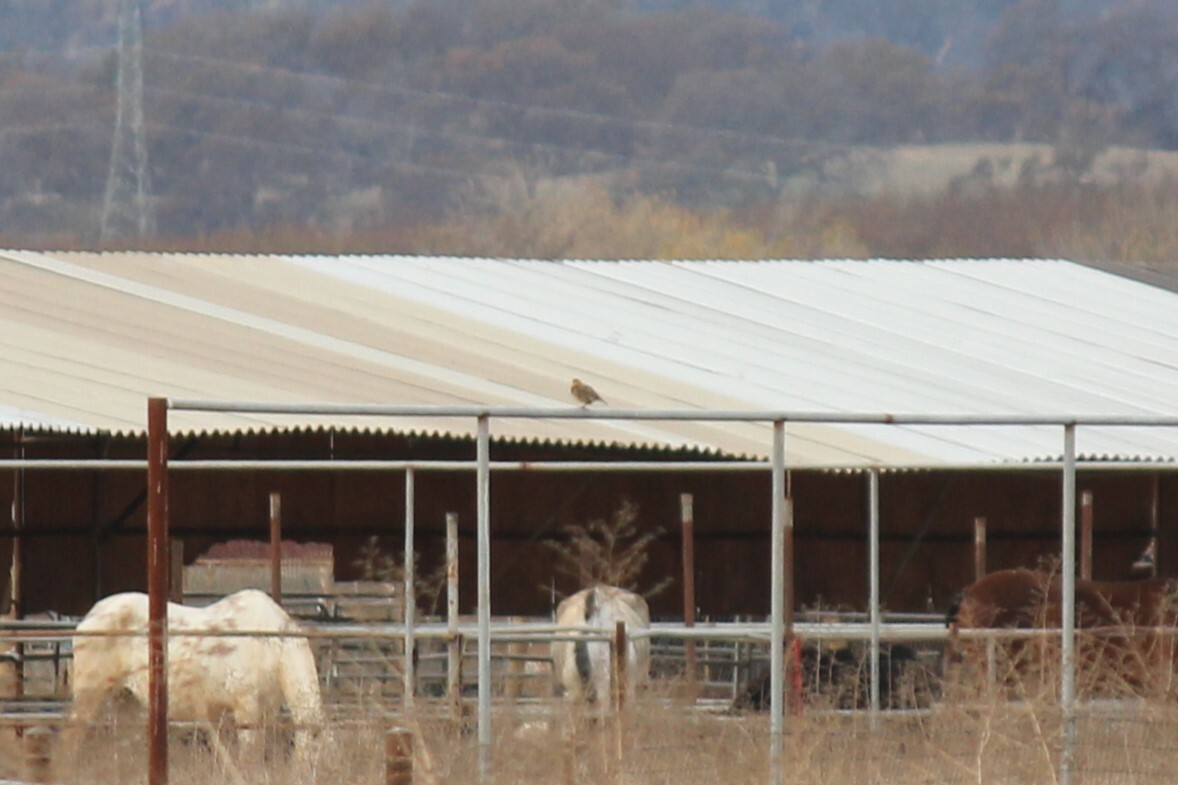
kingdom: Animalia
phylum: Chordata
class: Aves
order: Passeriformes
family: Icteridae
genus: Sturnella
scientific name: Sturnella neglecta
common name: Western meadowlark
